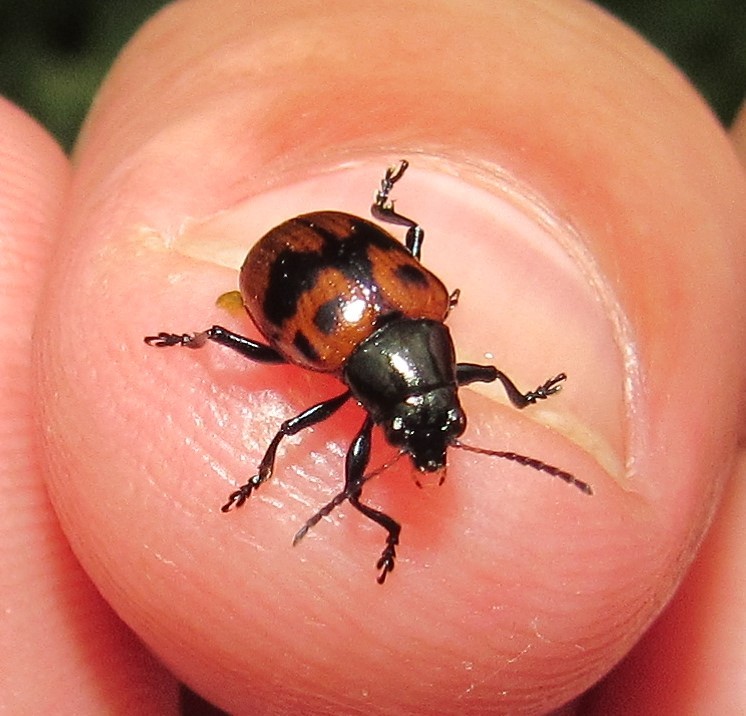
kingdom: Animalia
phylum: Arthropoda
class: Insecta
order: Coleoptera
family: Chrysomelidae
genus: Typophorus
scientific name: Typophorus
